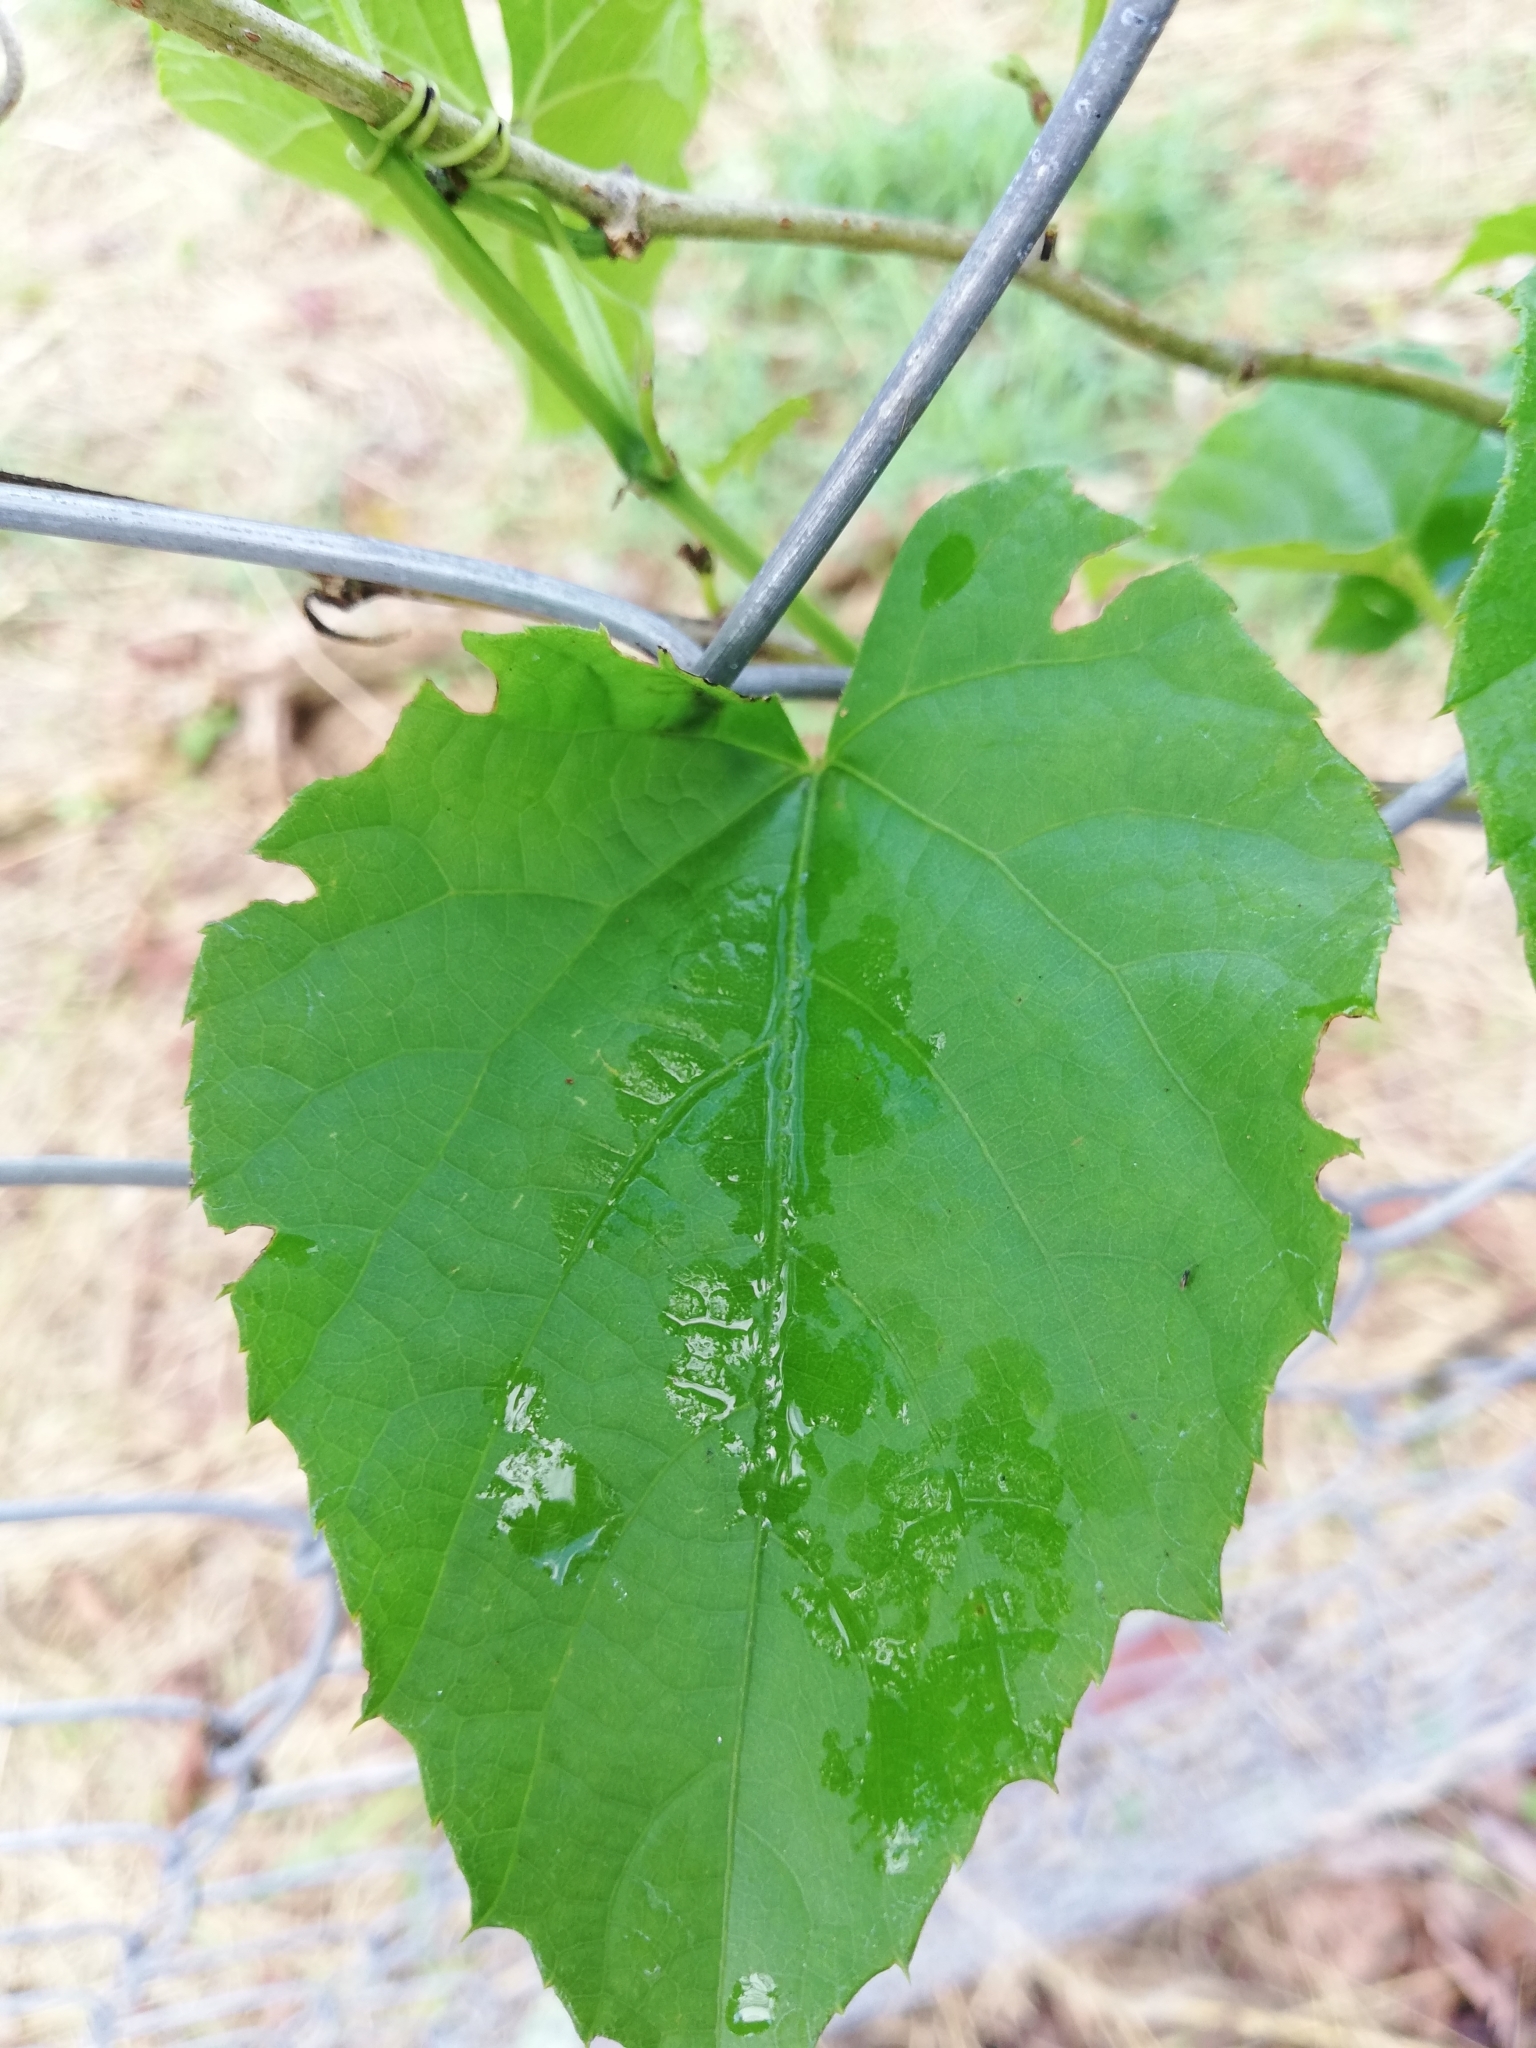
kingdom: Plantae
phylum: Tracheophyta
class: Magnoliopsida
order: Vitales
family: Vitaceae
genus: Cissus
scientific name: Cissus verticillata
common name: Princess vine
